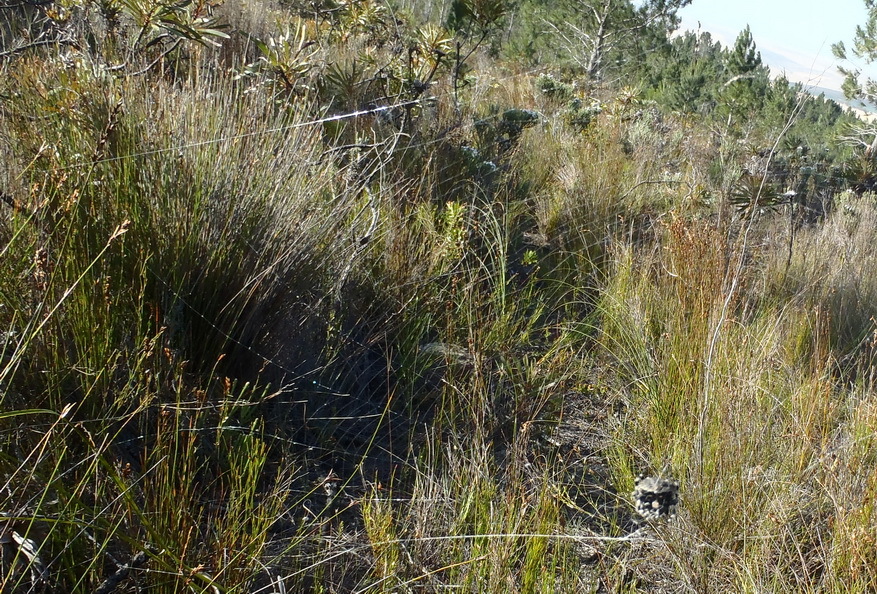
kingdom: Animalia
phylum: Arthropoda
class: Arachnida
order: Araneae
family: Araneidae
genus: Caerostris
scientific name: Caerostris sexcuspidata
